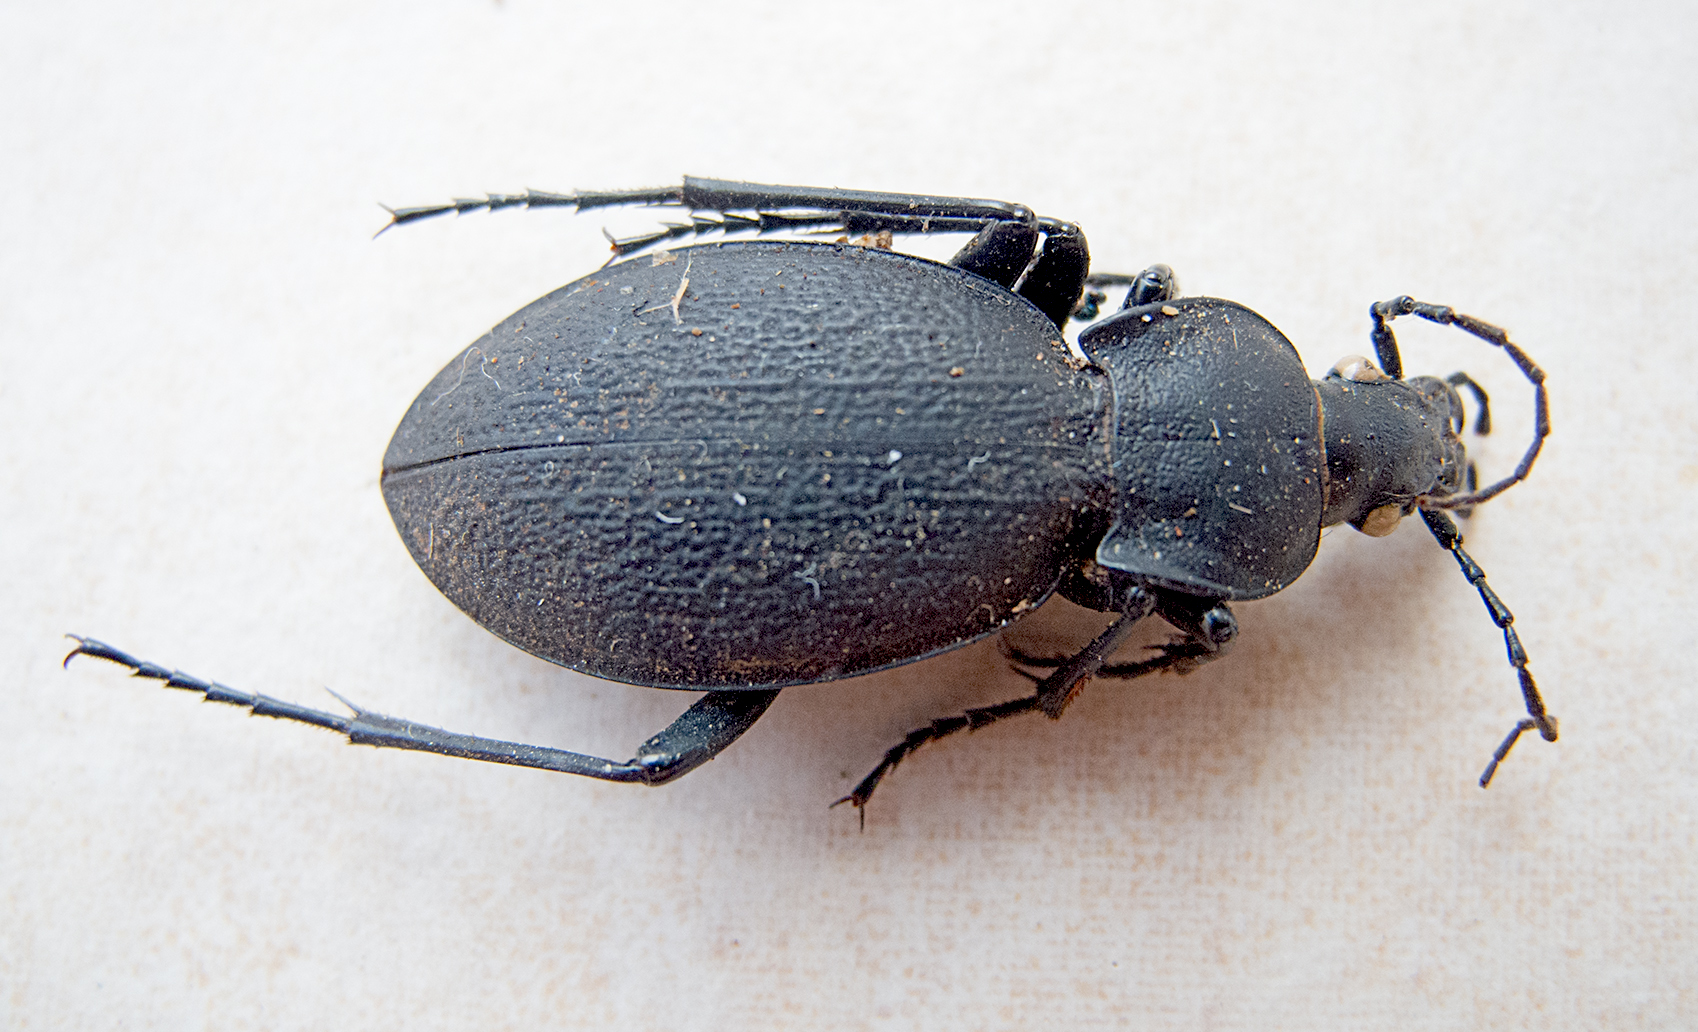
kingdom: Animalia
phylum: Arthropoda
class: Insecta
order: Coleoptera
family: Carabidae
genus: Carabus
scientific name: Carabus coriaceus
